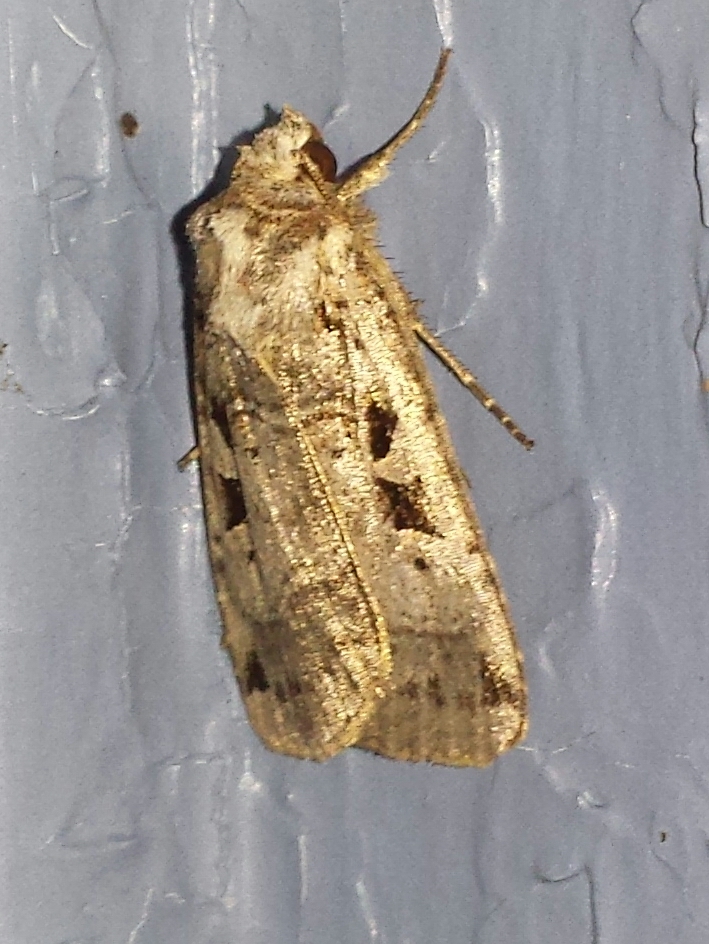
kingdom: Animalia
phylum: Arthropoda
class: Insecta
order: Lepidoptera
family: Noctuidae
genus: Xestia
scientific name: Xestia normaniana
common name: Norman's dart moth
